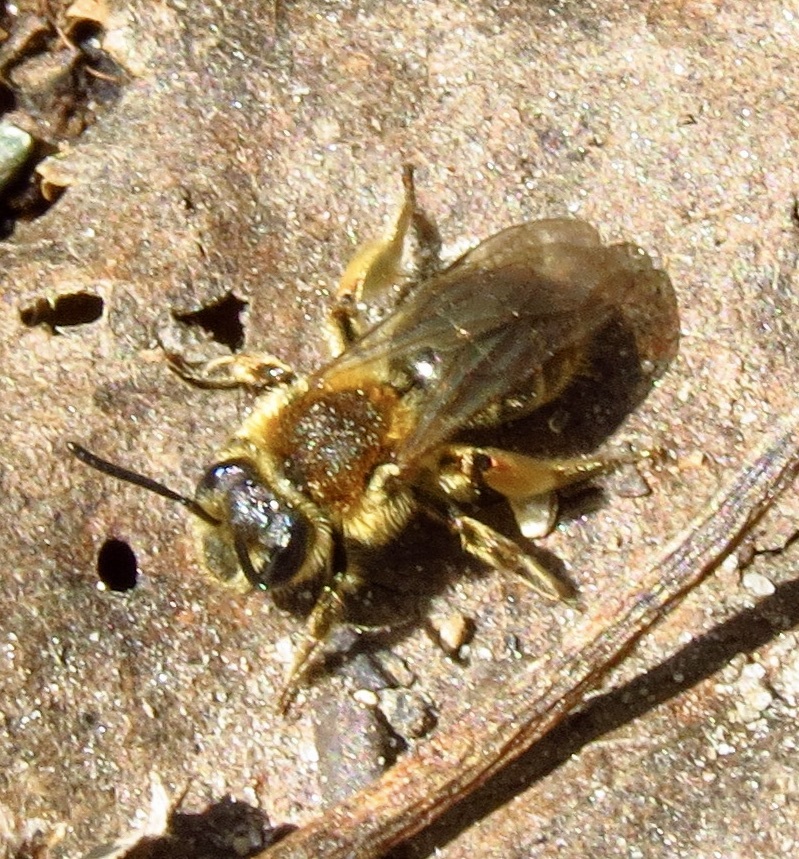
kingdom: Animalia
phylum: Arthropoda
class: Insecta
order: Hymenoptera
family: Andrenidae
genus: Andrena
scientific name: Andrena rugosa
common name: Rugose mining bee
